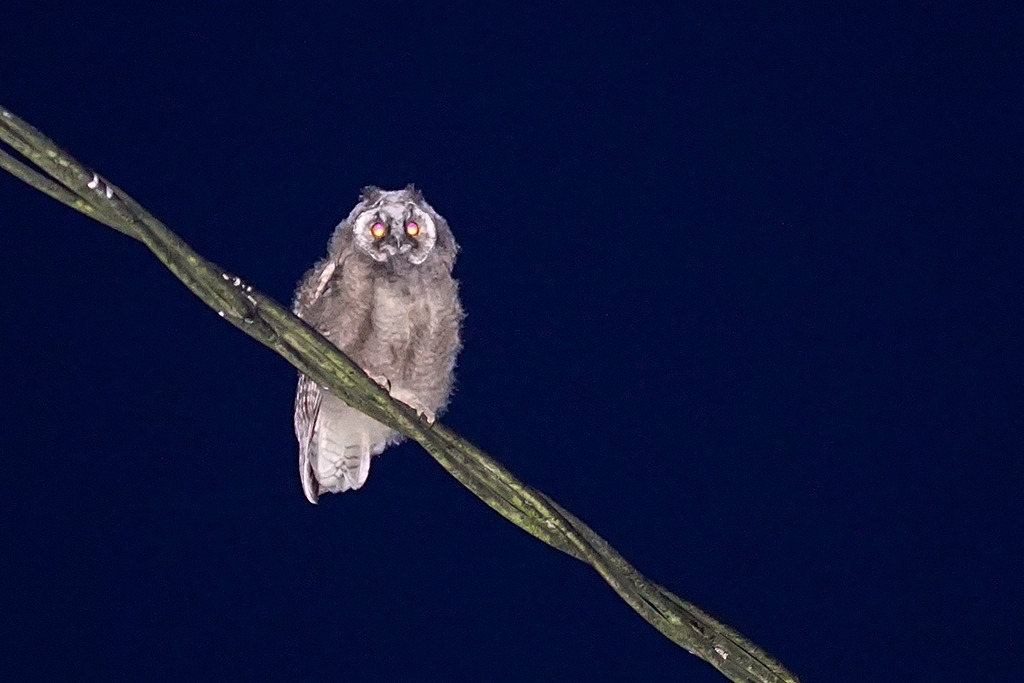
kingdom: Animalia
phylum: Chordata
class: Aves
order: Strigiformes
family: Strigidae
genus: Asio
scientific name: Asio otus
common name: Long-eared owl
